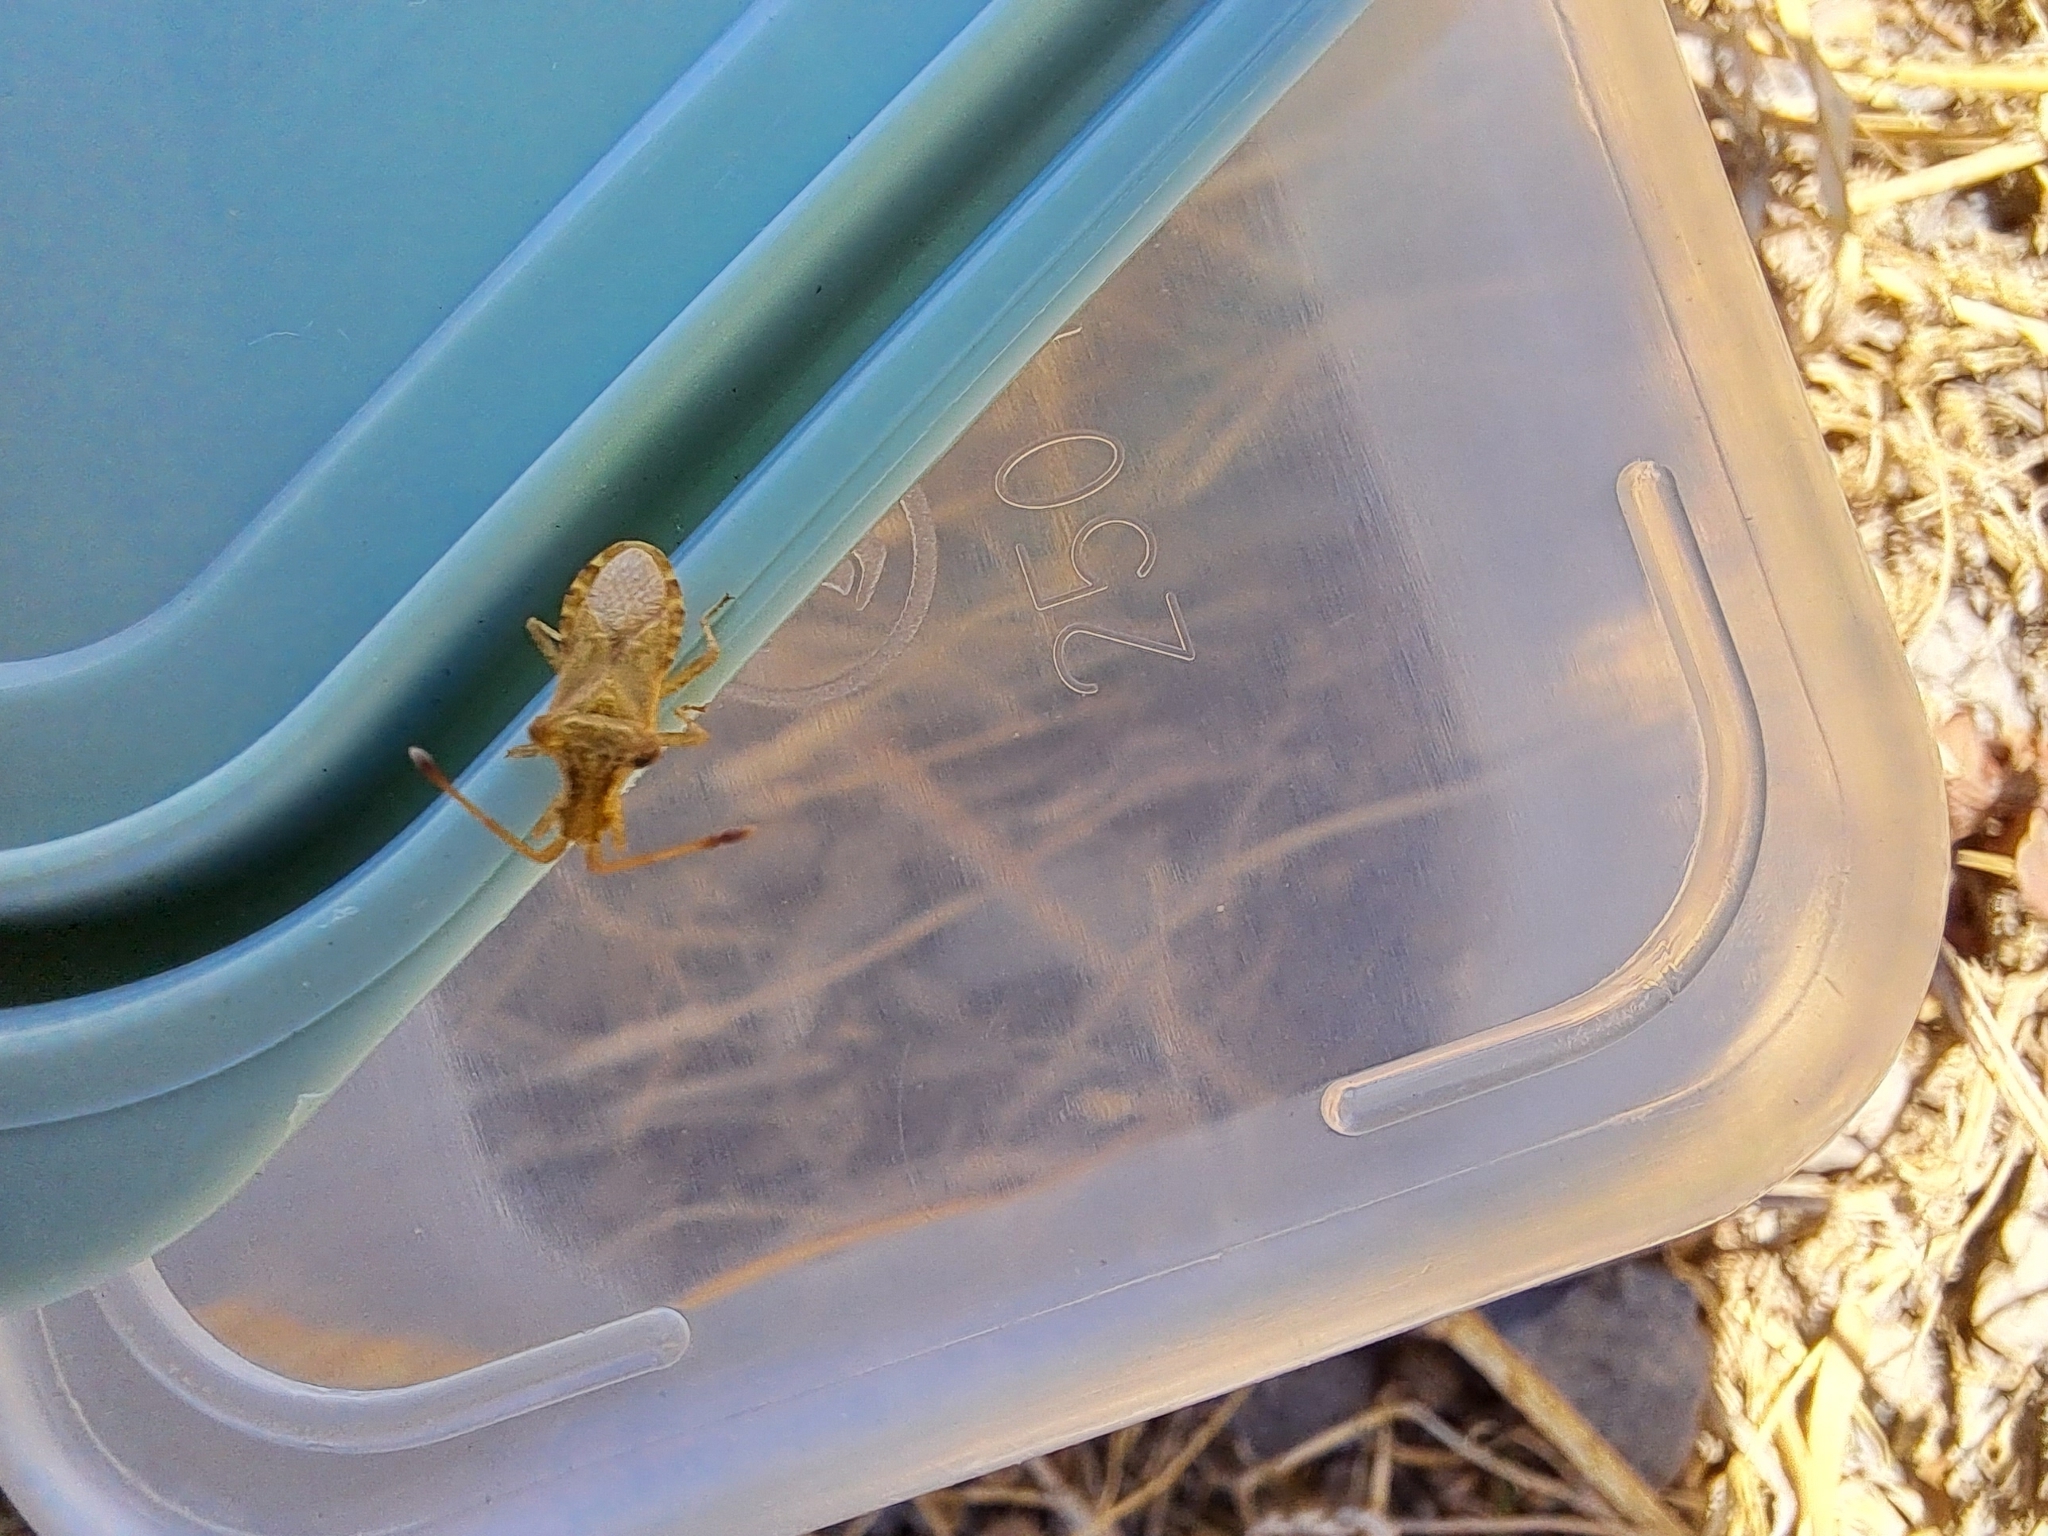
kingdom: Animalia
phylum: Arthropoda
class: Insecta
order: Hemiptera
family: Coreidae
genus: Cletus
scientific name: Cletus capensis
